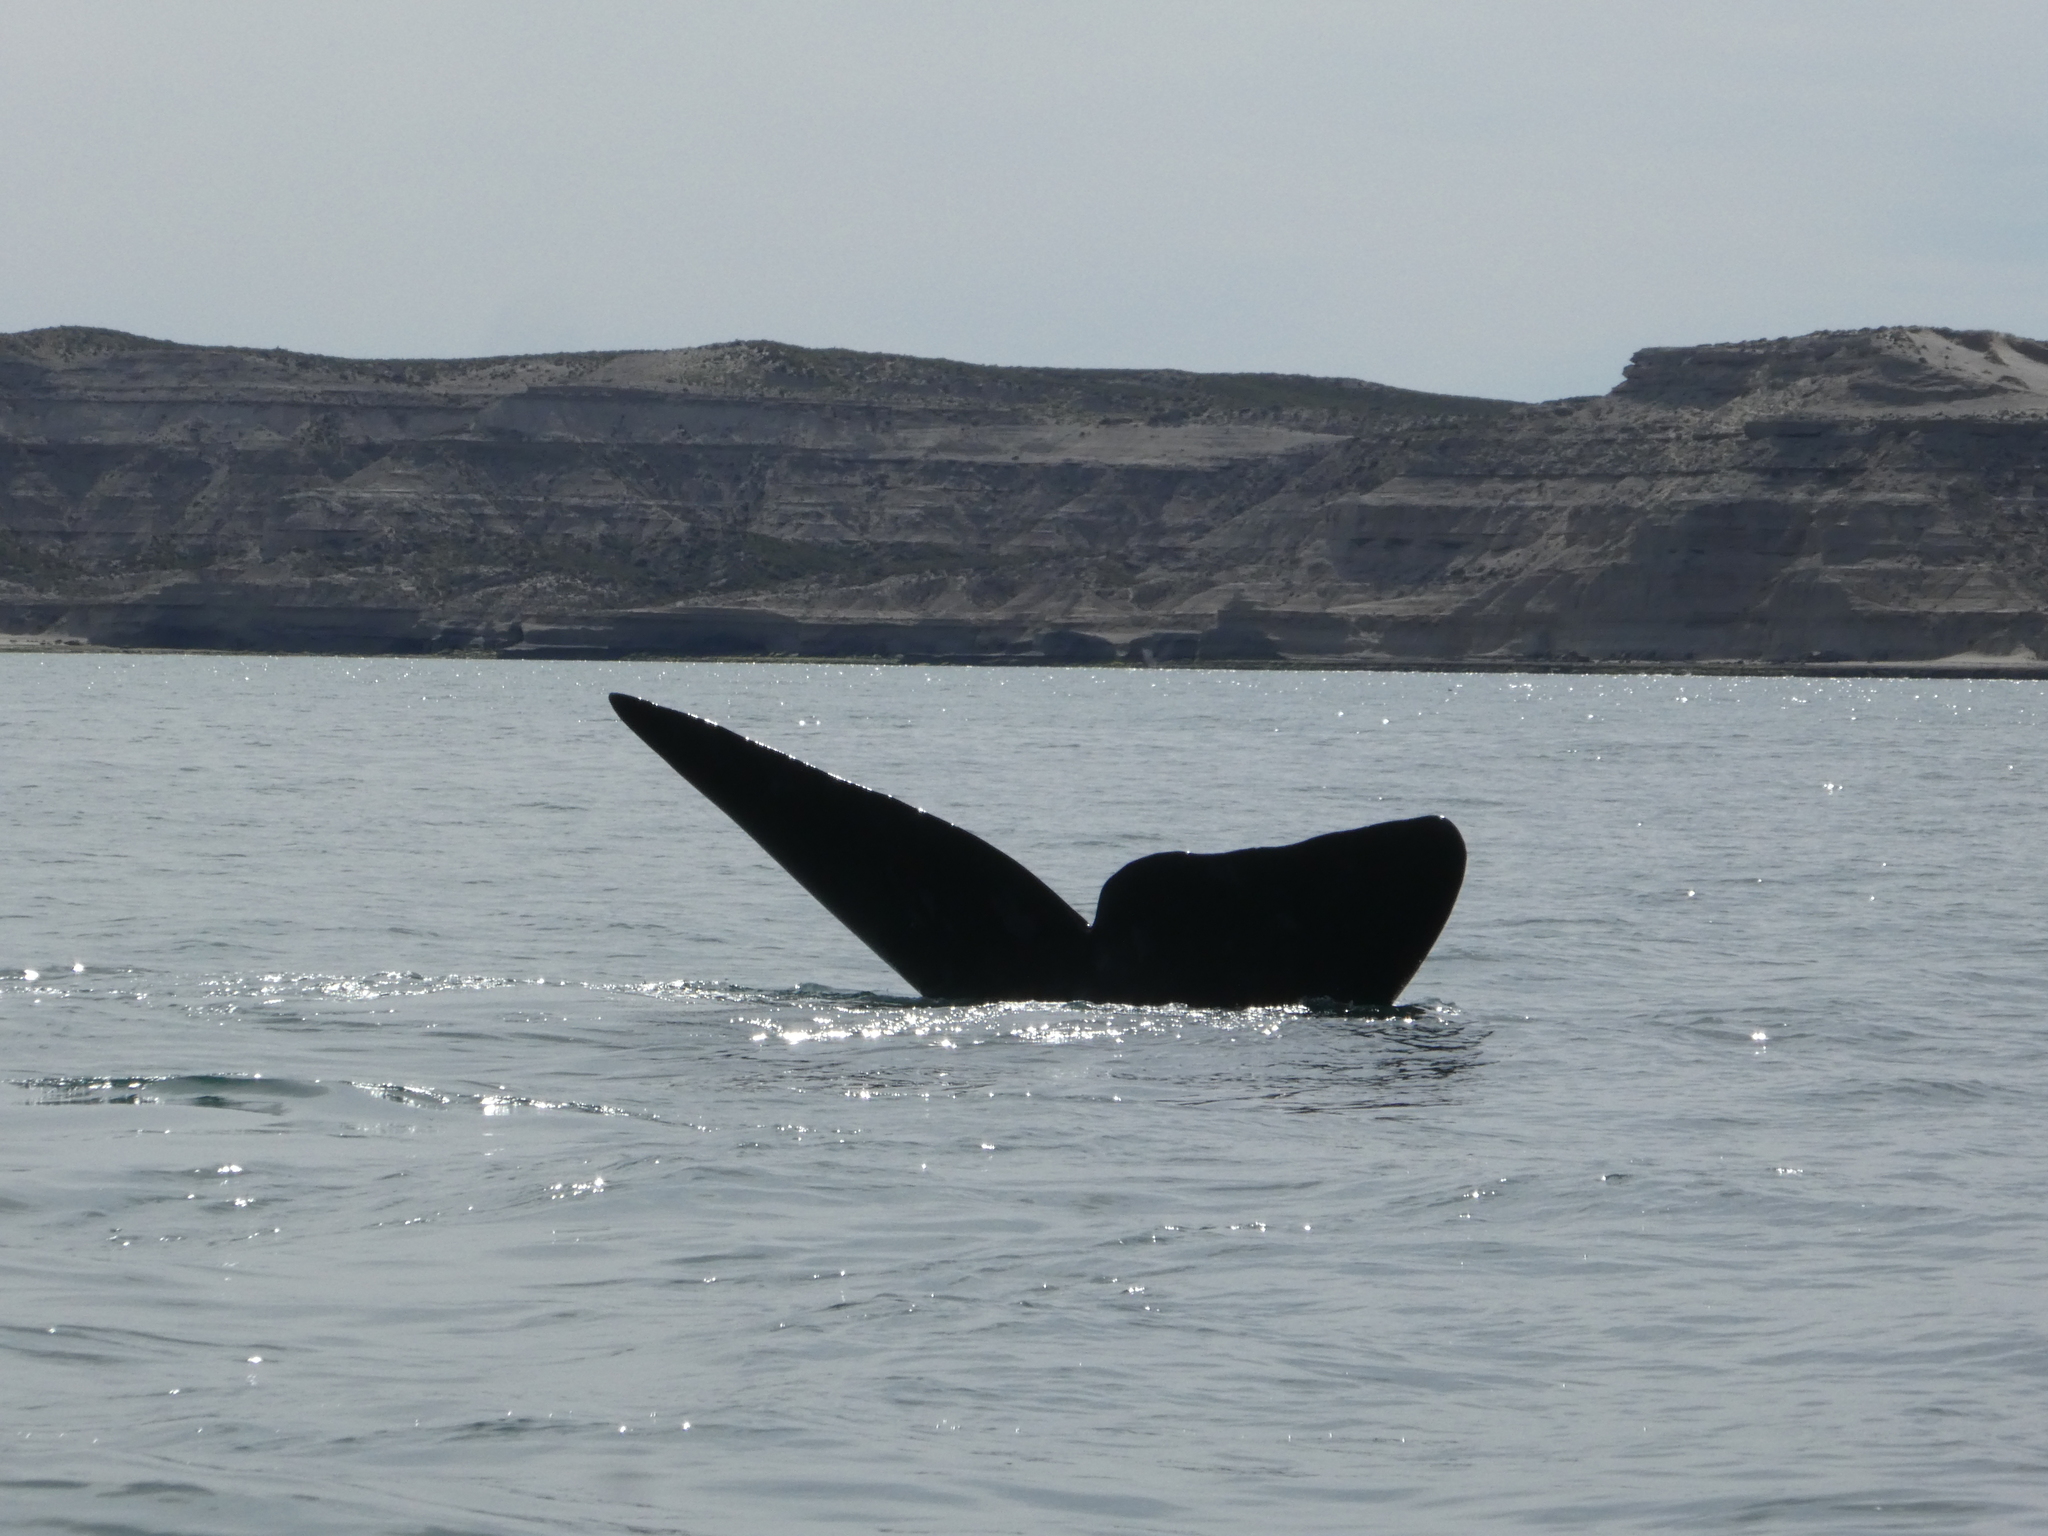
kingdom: Animalia
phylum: Chordata
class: Mammalia
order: Cetacea
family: Balaenidae
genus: Eubalaena
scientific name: Eubalaena australis
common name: Southern right whale
